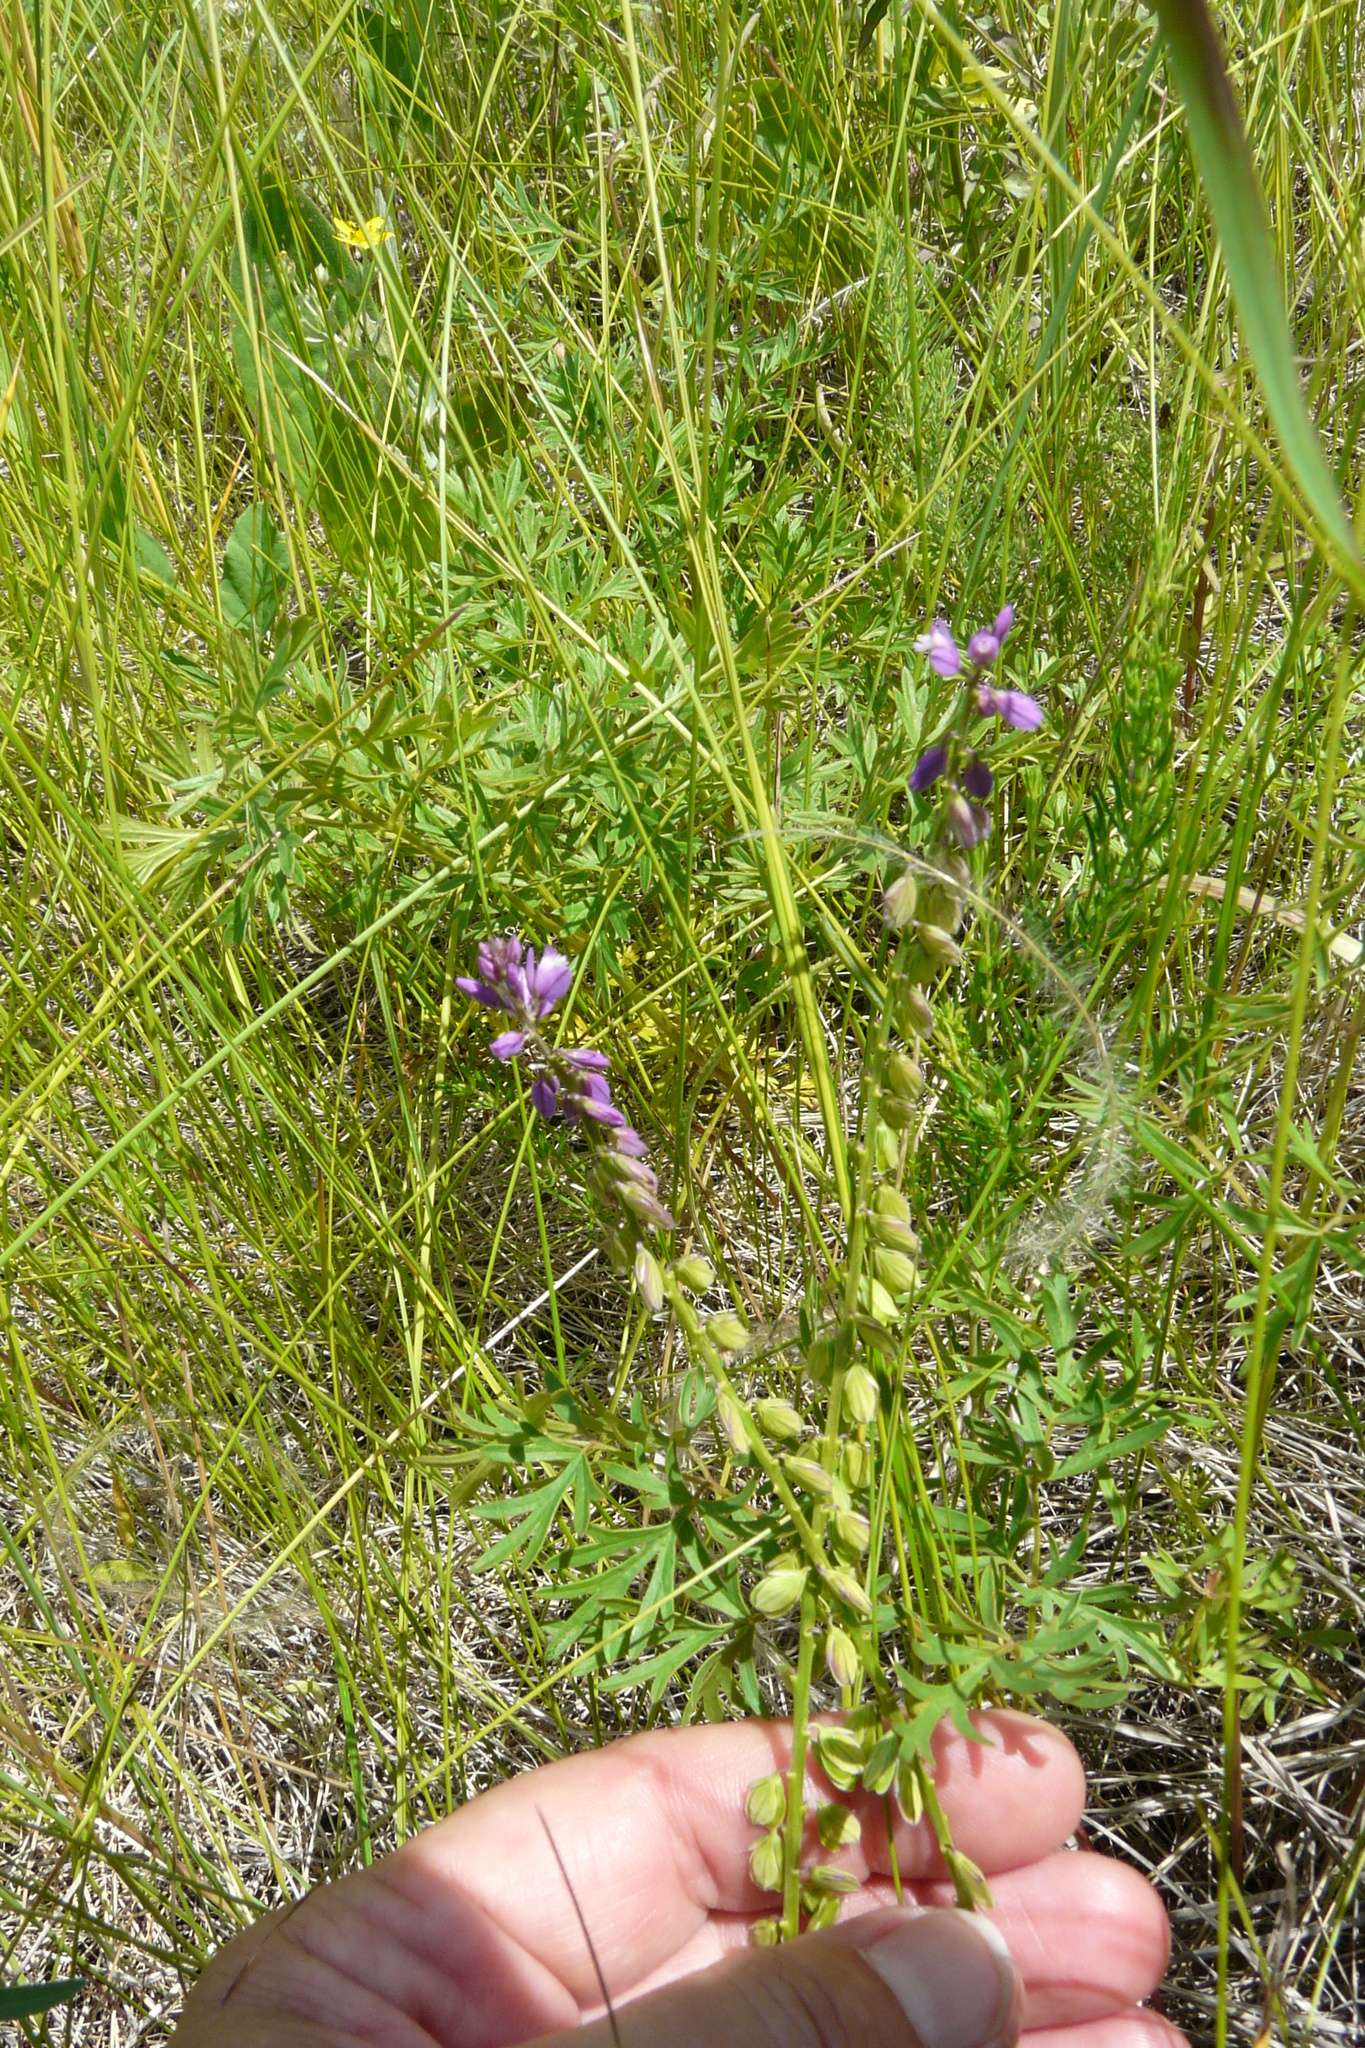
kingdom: Plantae
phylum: Tracheophyta
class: Magnoliopsida
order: Fabales
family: Polygalaceae
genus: Polygala
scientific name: Polygala comosa
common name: Tufted milkwort
